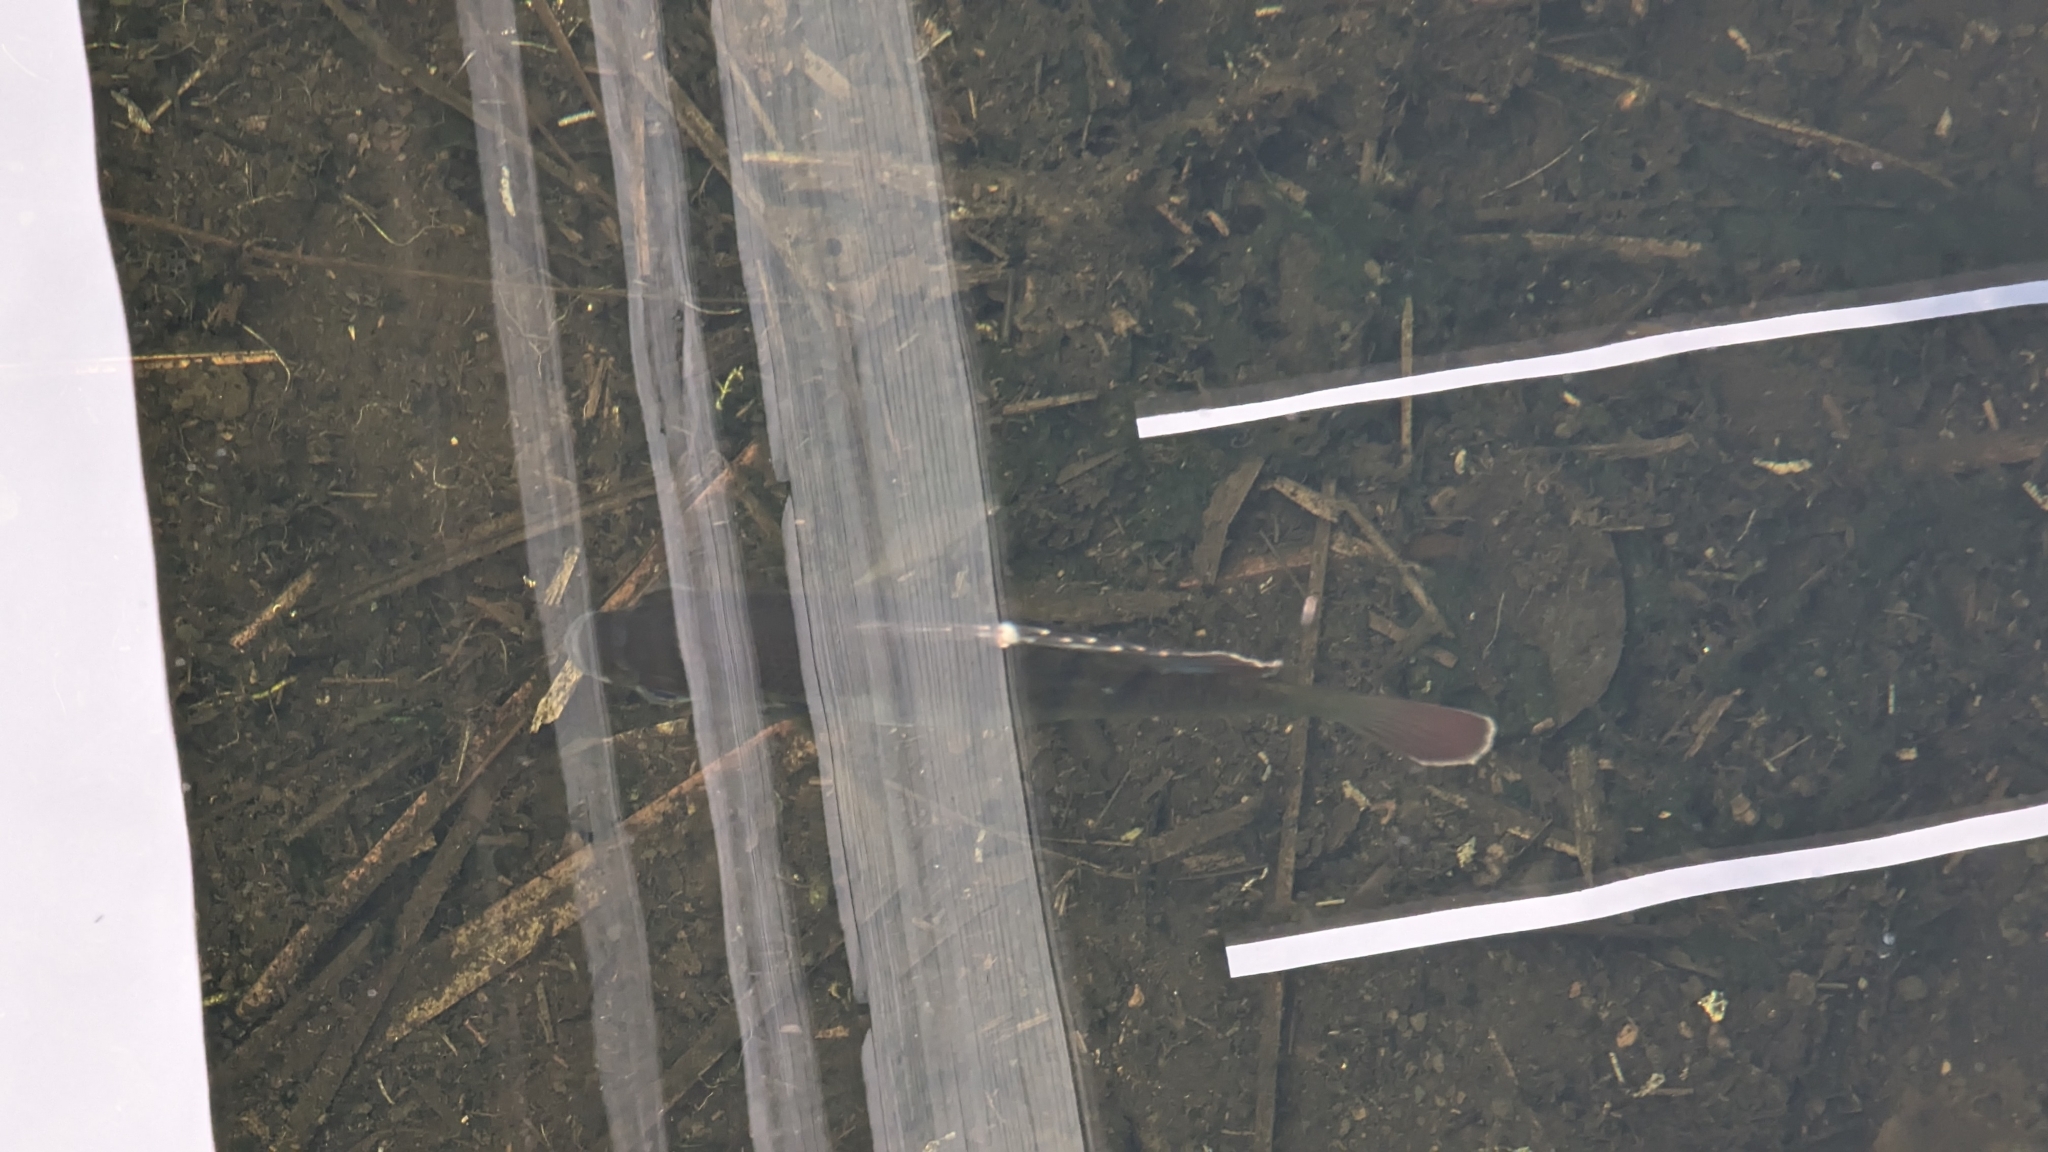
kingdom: Animalia
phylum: Chordata
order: Perciformes
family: Centrarchidae
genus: Lepomis
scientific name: Lepomis macrochirus
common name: Bluegill
